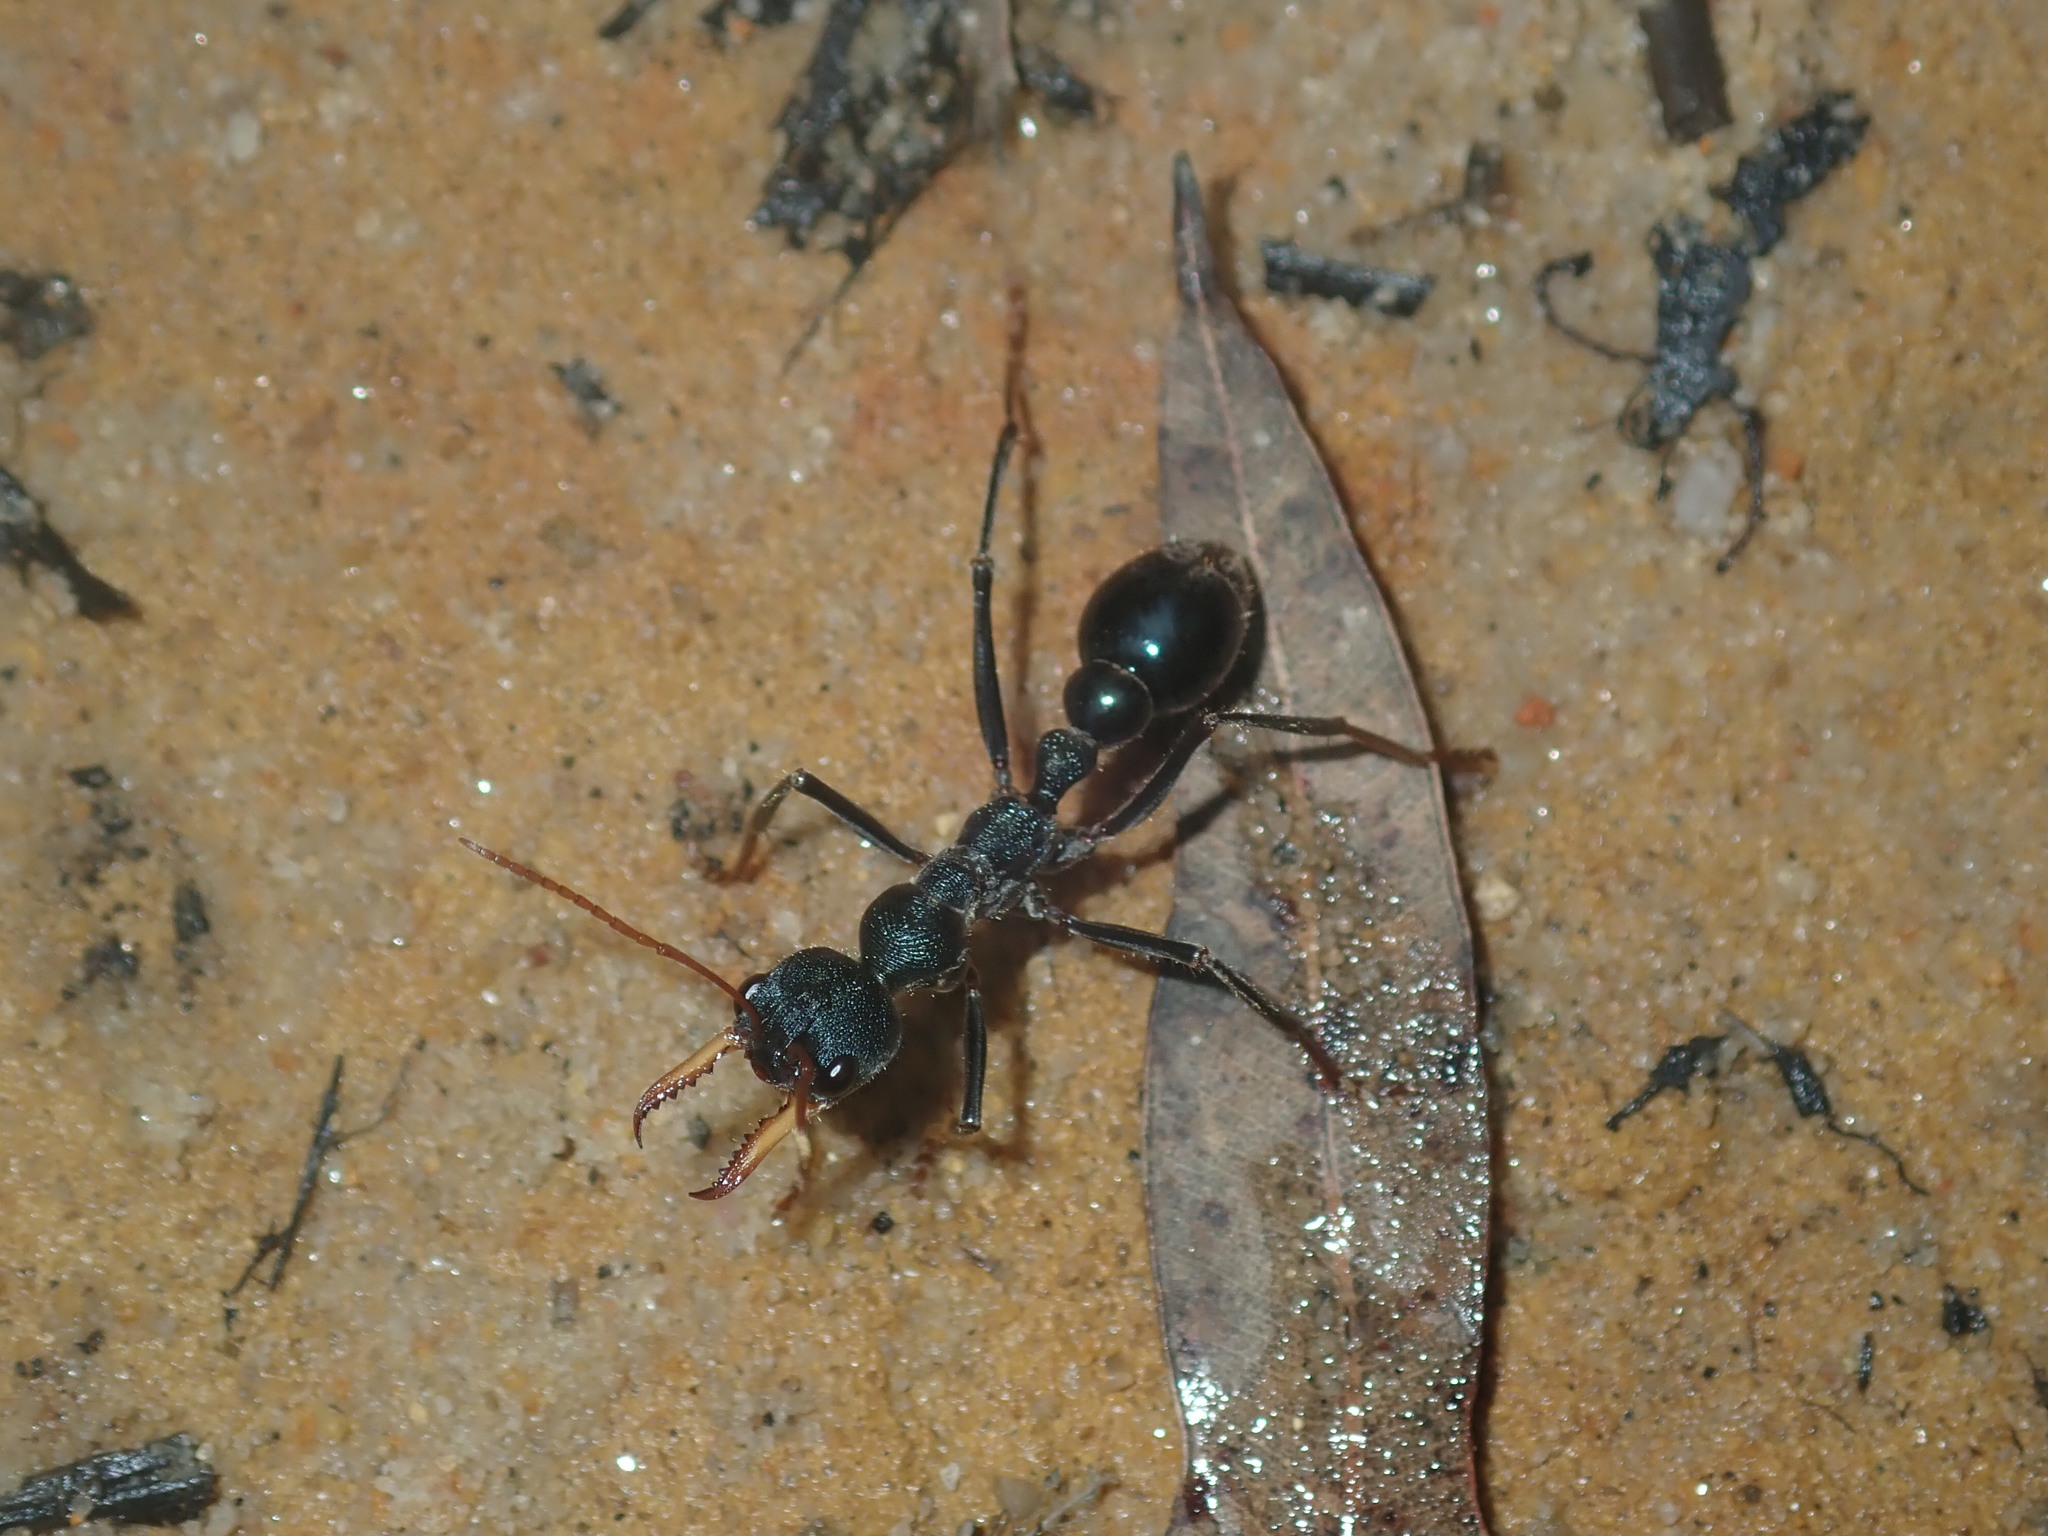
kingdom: Animalia
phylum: Arthropoda
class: Insecta
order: Hymenoptera
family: Formicidae
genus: Myrmecia
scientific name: Myrmecia tarsata
